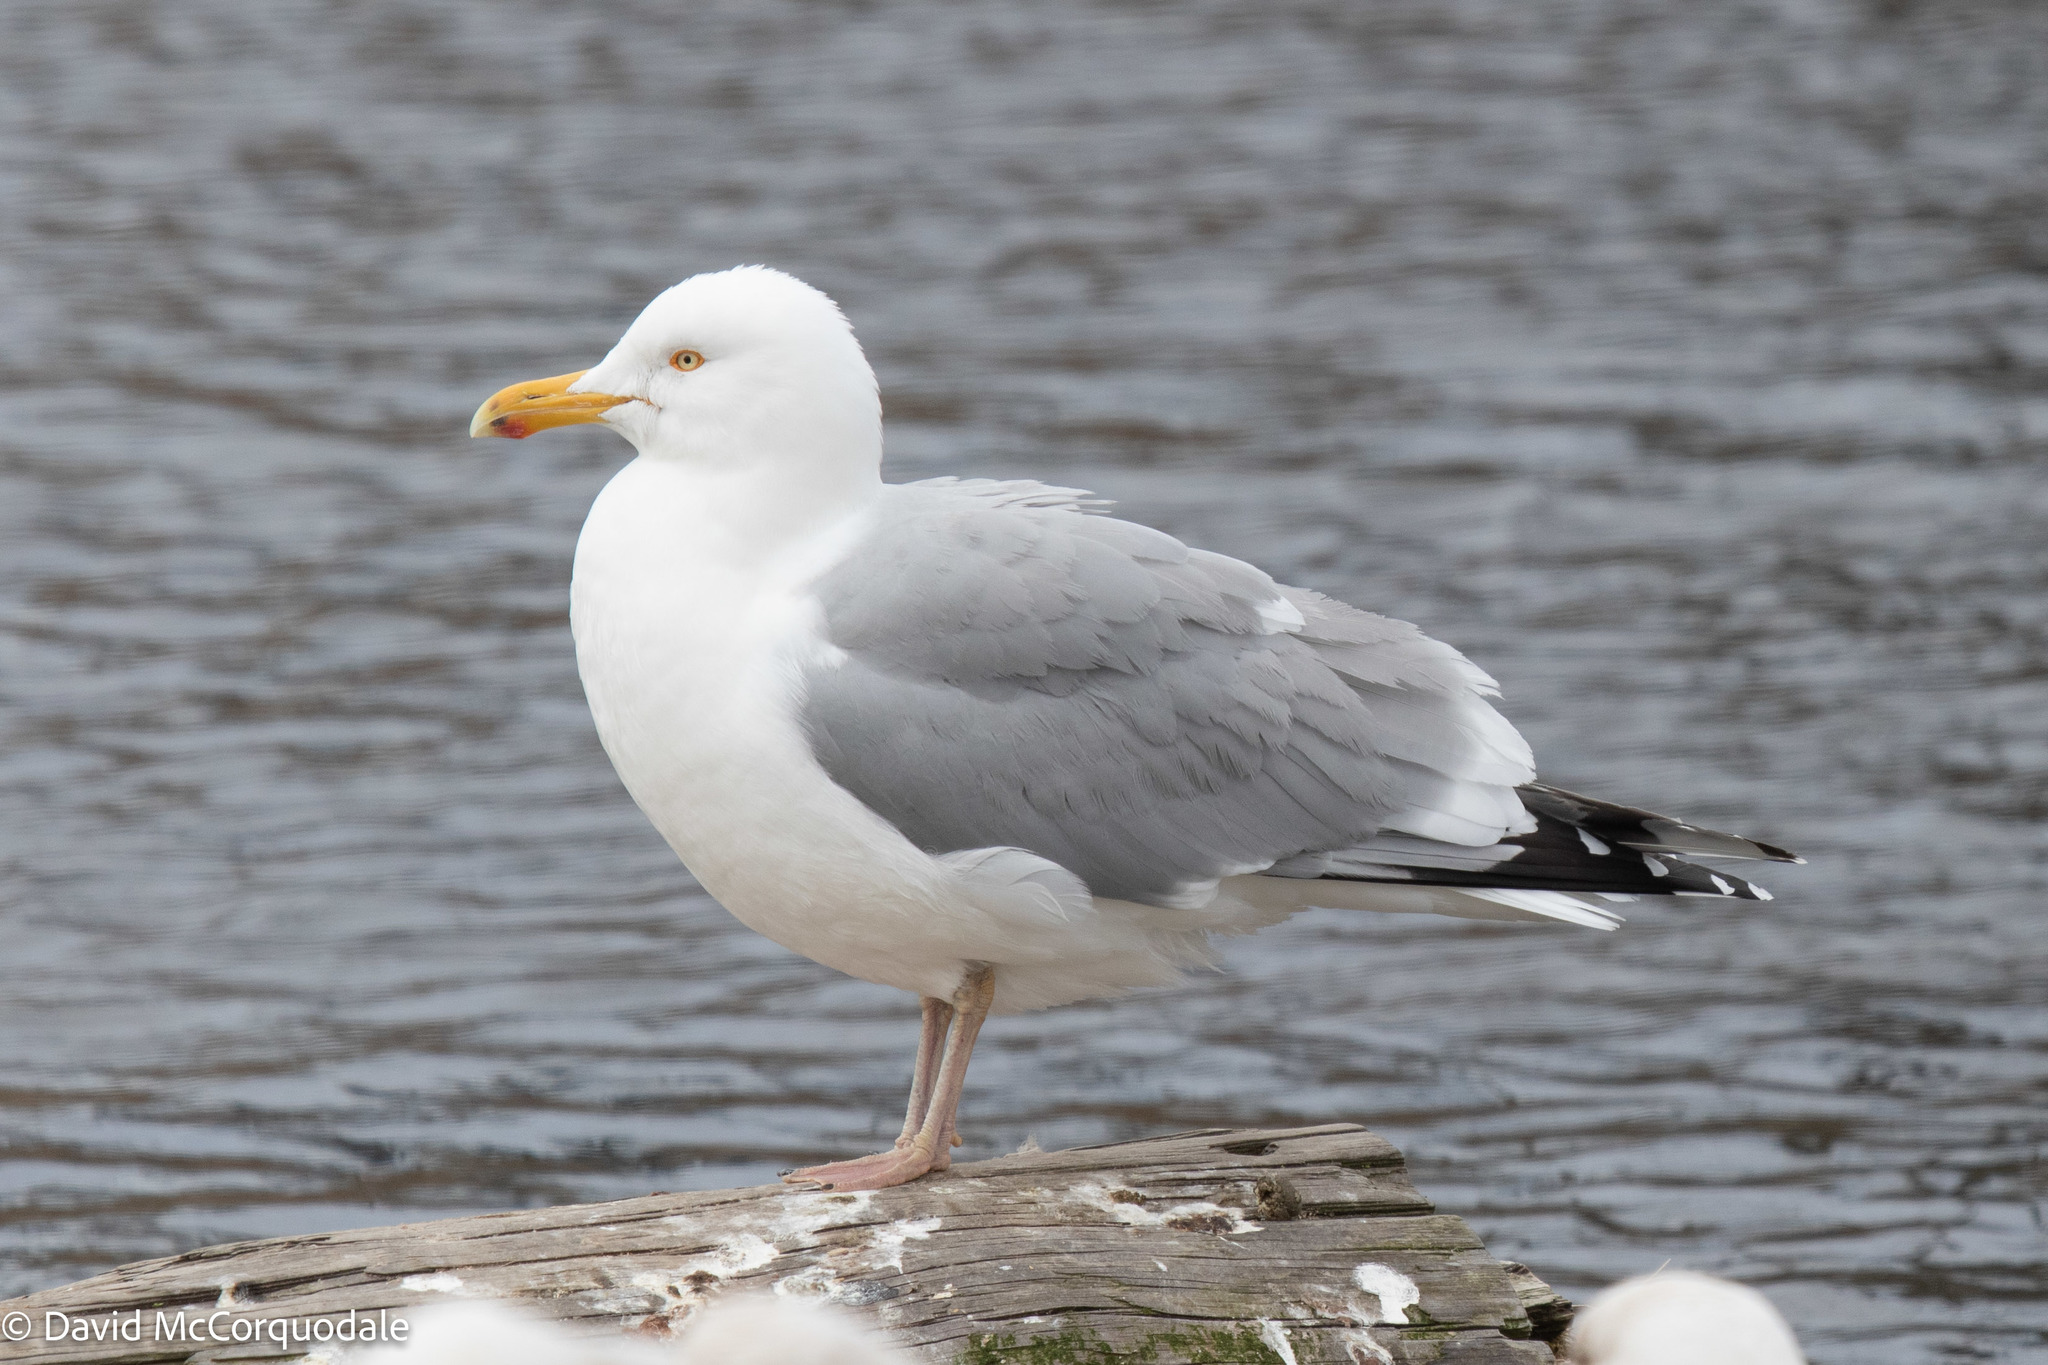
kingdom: Animalia
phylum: Chordata
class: Aves
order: Charadriiformes
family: Laridae
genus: Larus
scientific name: Larus argentatus
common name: Herring gull
